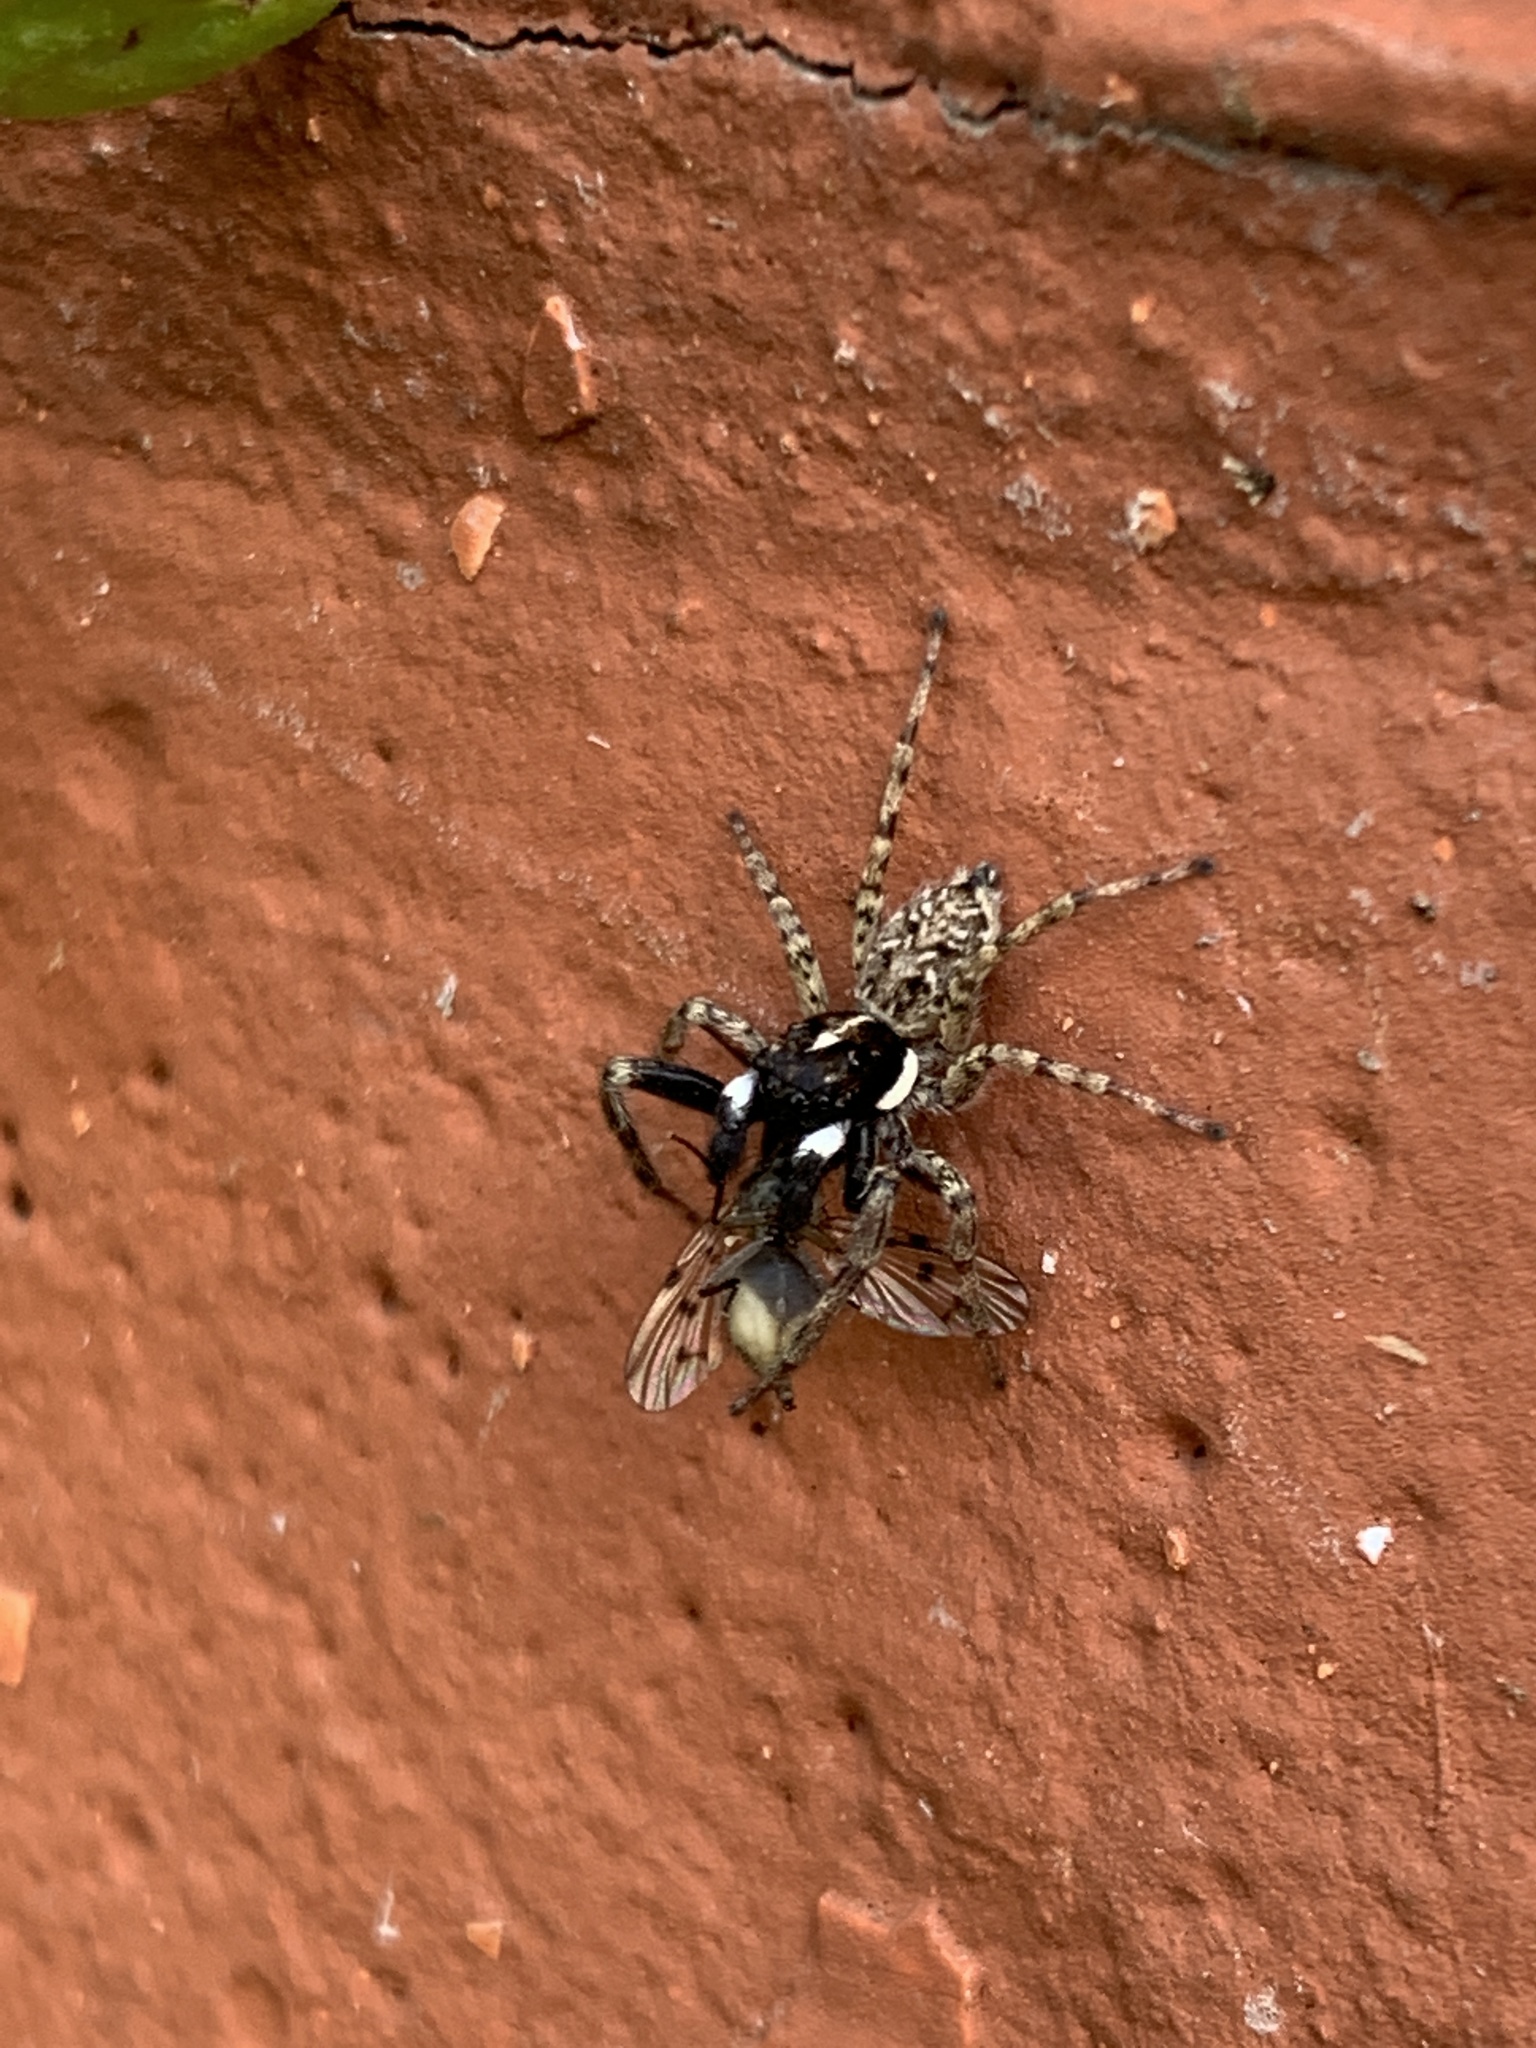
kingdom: Animalia
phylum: Arthropoda
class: Arachnida
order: Araneae
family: Salticidae
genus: Menemerus
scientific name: Menemerus semilimbatus
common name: Jumping spider
